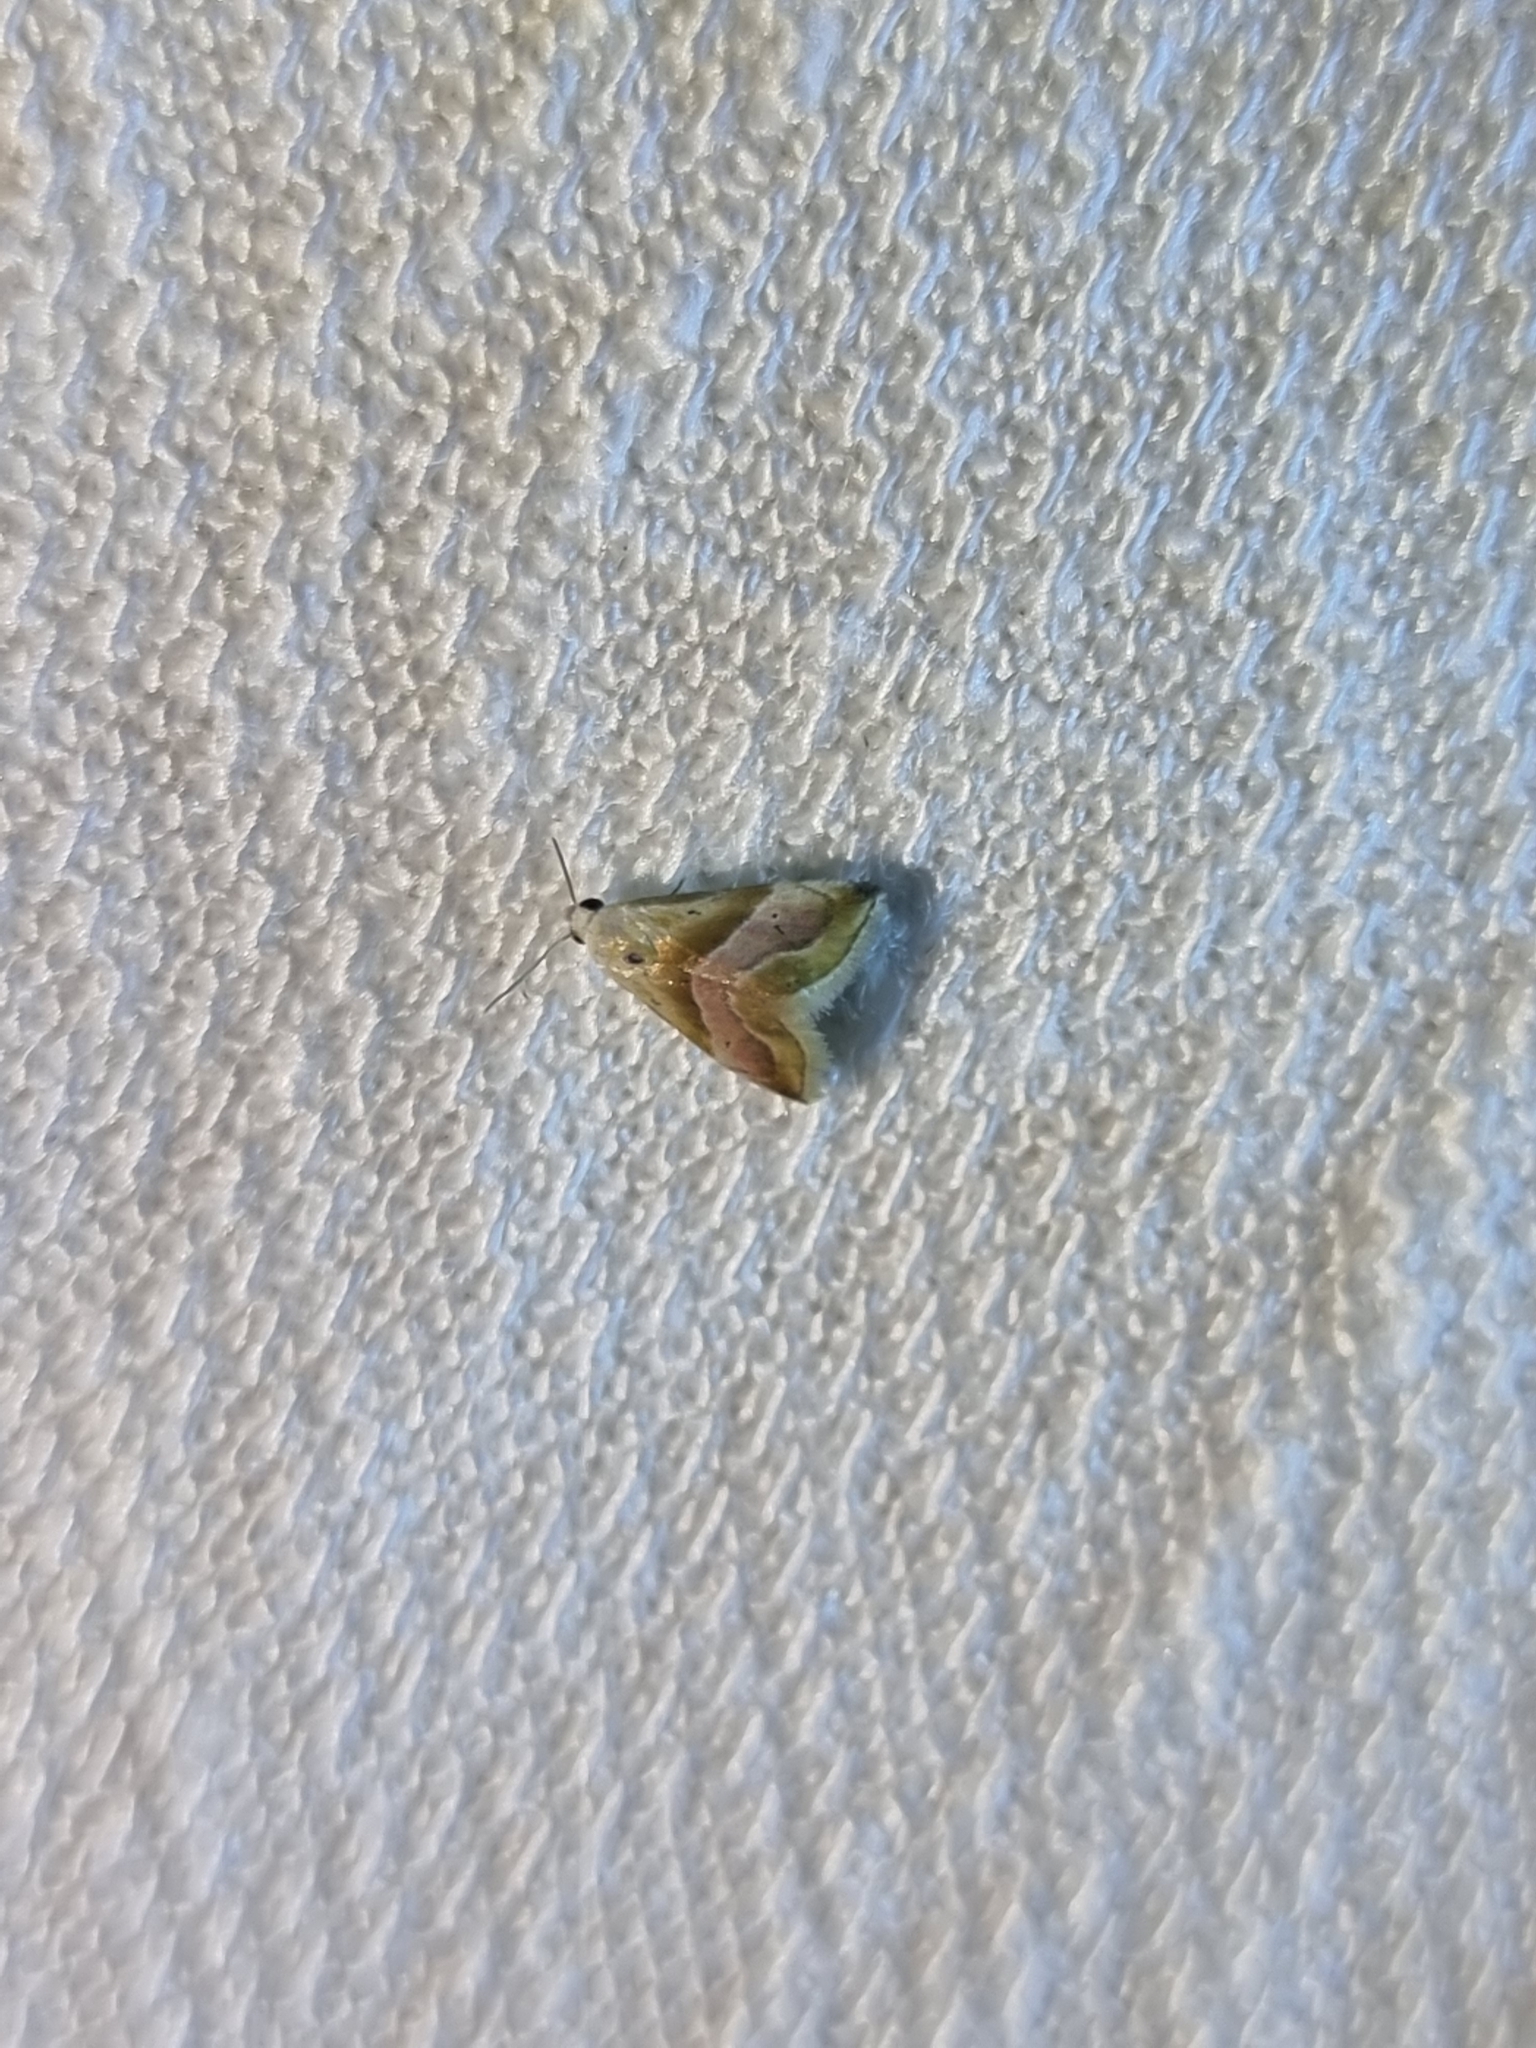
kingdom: Animalia
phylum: Arthropoda
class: Insecta
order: Lepidoptera
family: Noctuidae
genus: Eublemma
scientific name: Eublemma roseana
